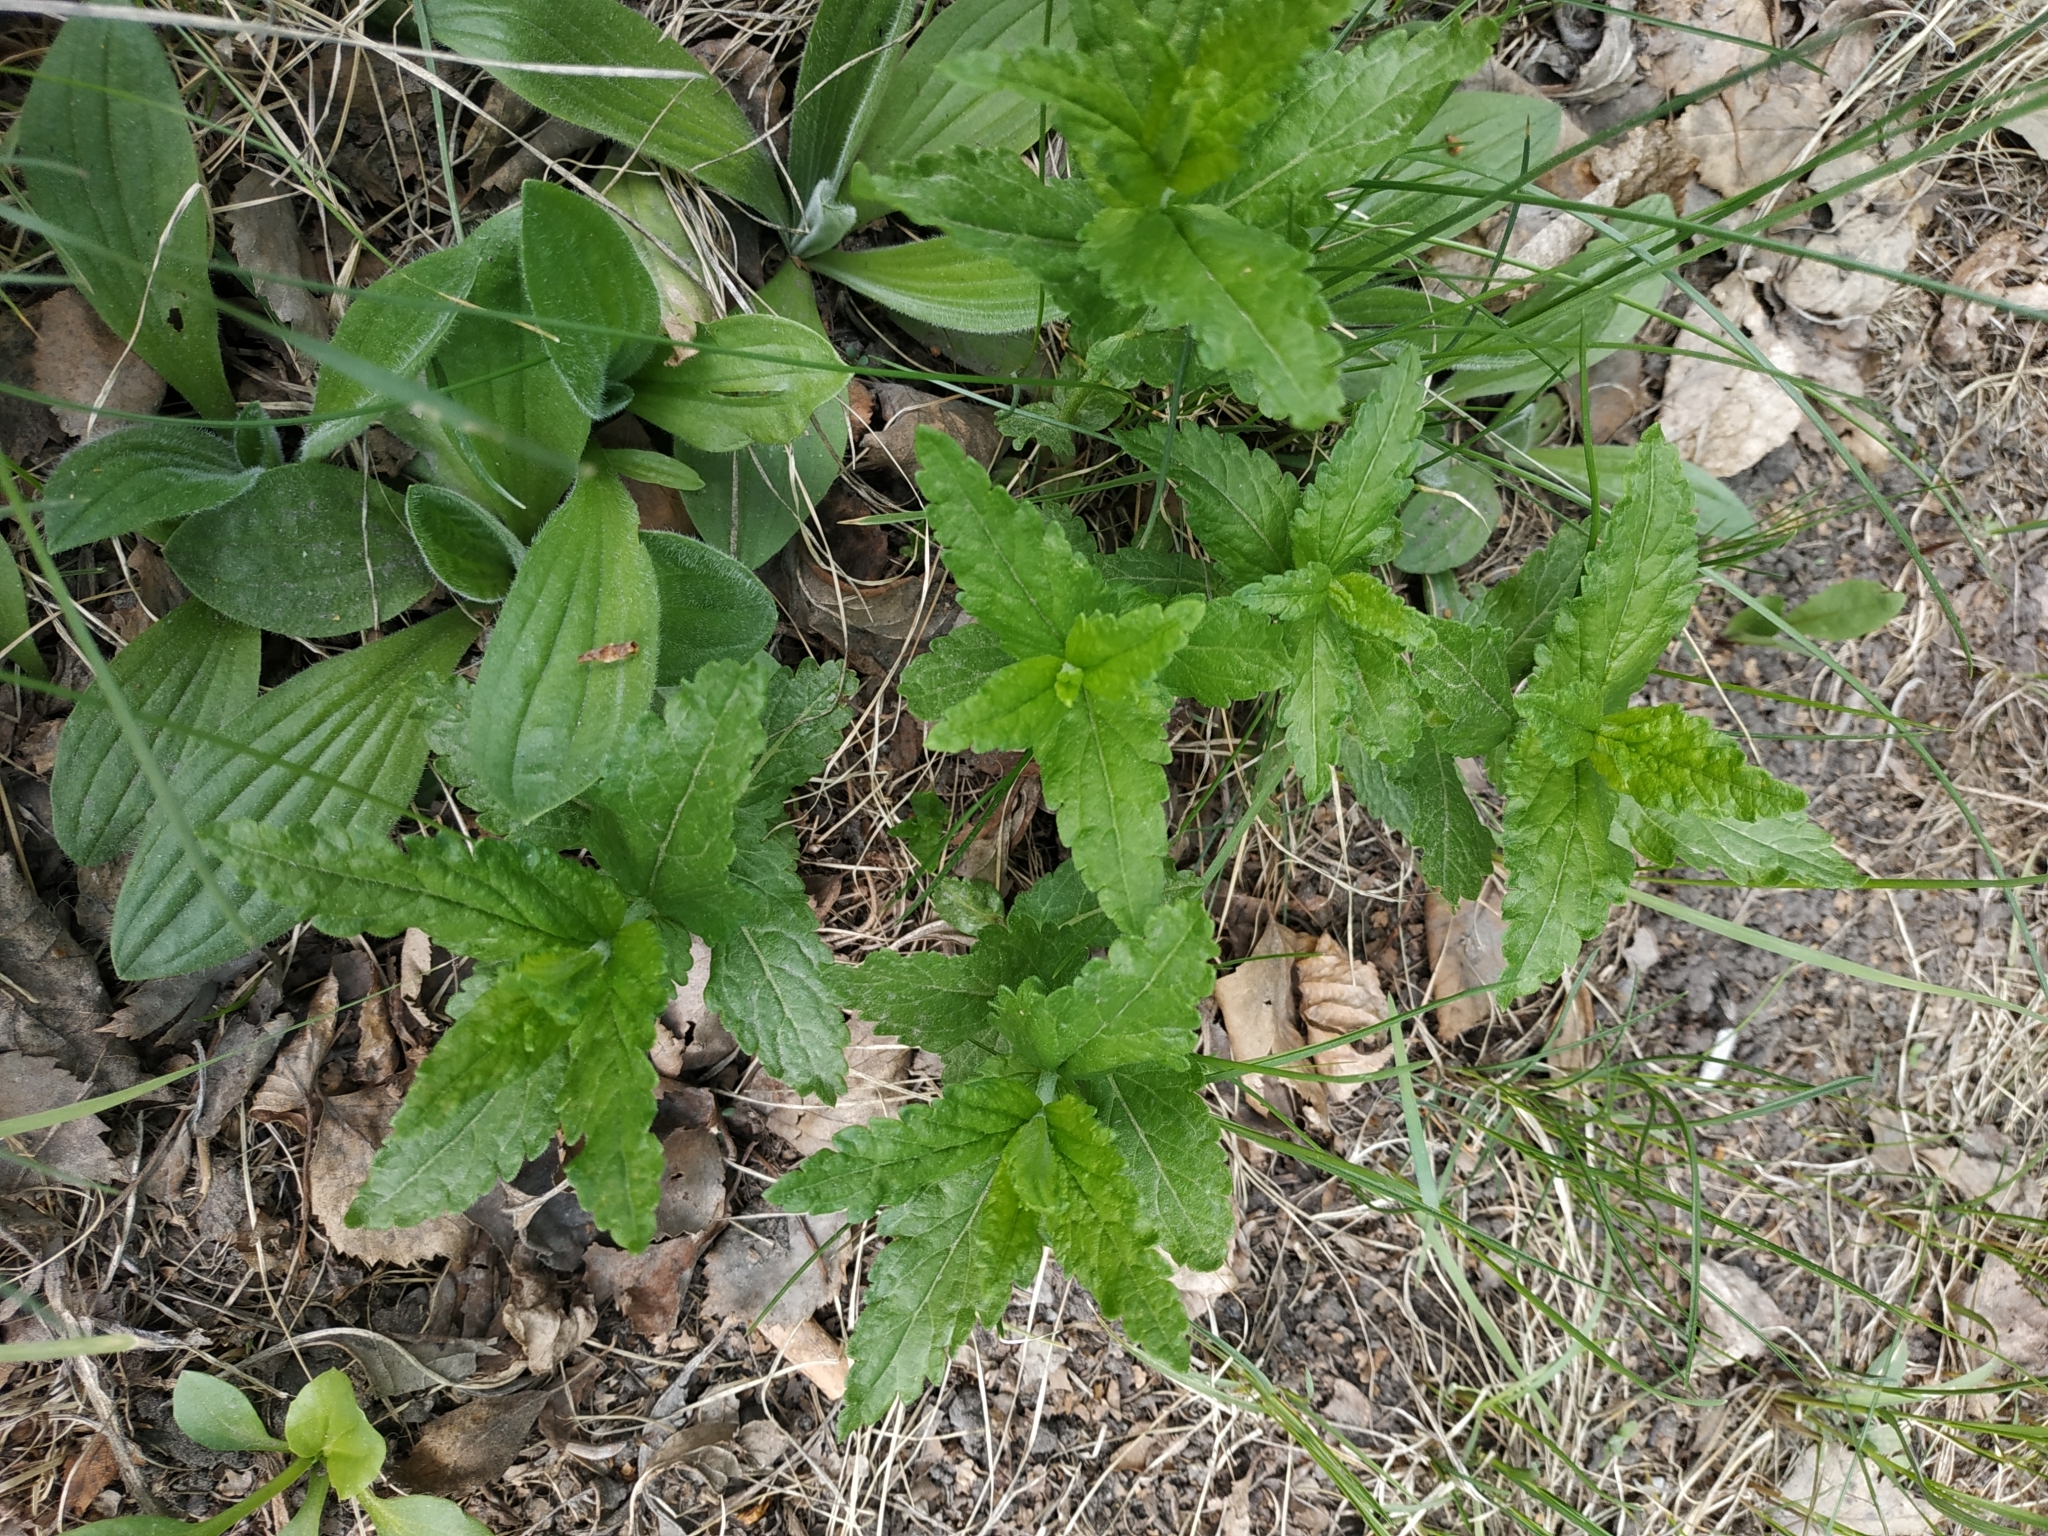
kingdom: Plantae
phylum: Tracheophyta
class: Magnoliopsida
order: Lamiales
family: Plantaginaceae
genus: Veronica
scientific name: Veronica teucrium
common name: Large speedwell
